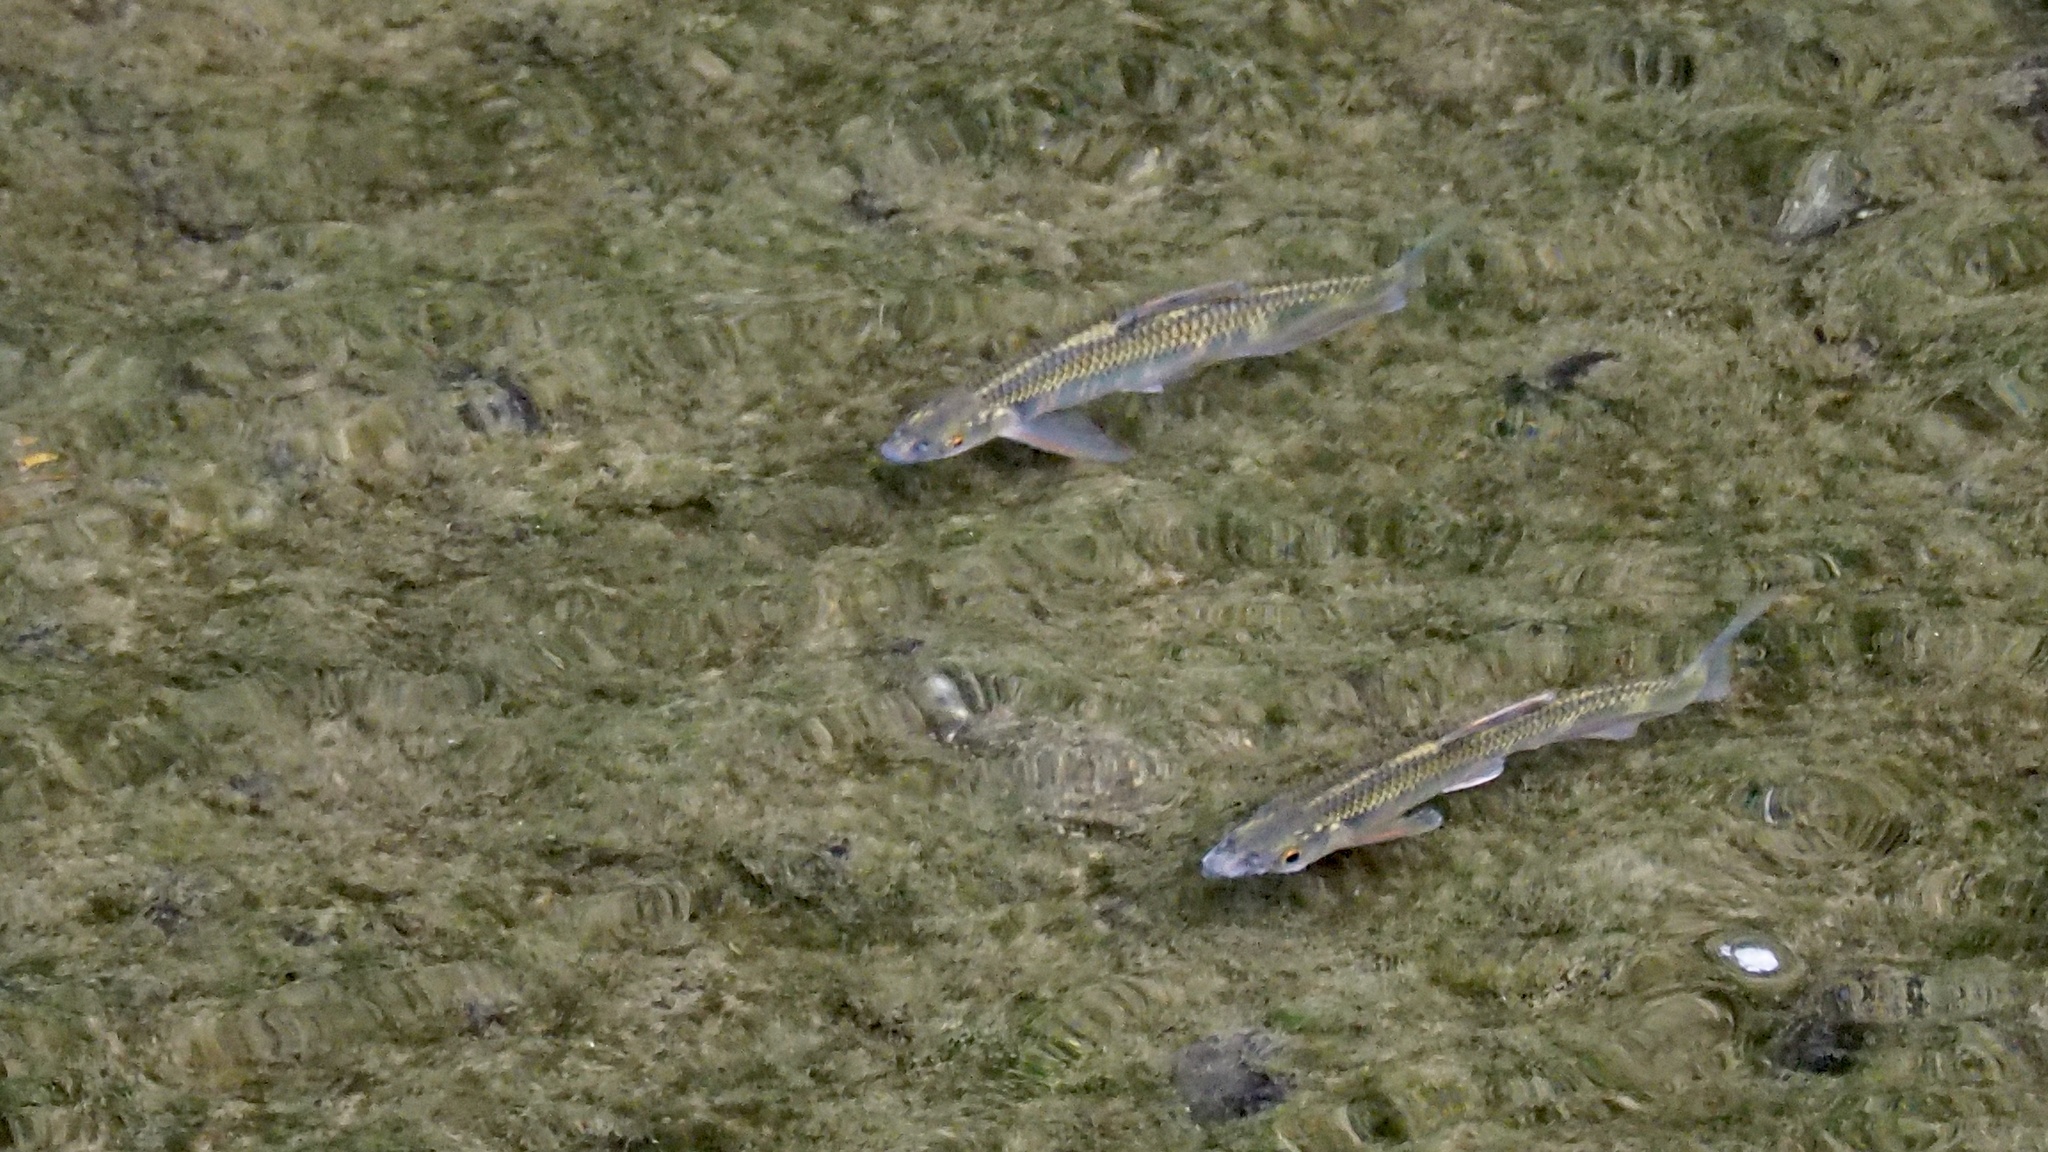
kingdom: Animalia
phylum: Chordata
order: Cypriniformes
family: Cyprinidae
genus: Zacco
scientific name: Zacco platypus
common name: Freshwater minnow
